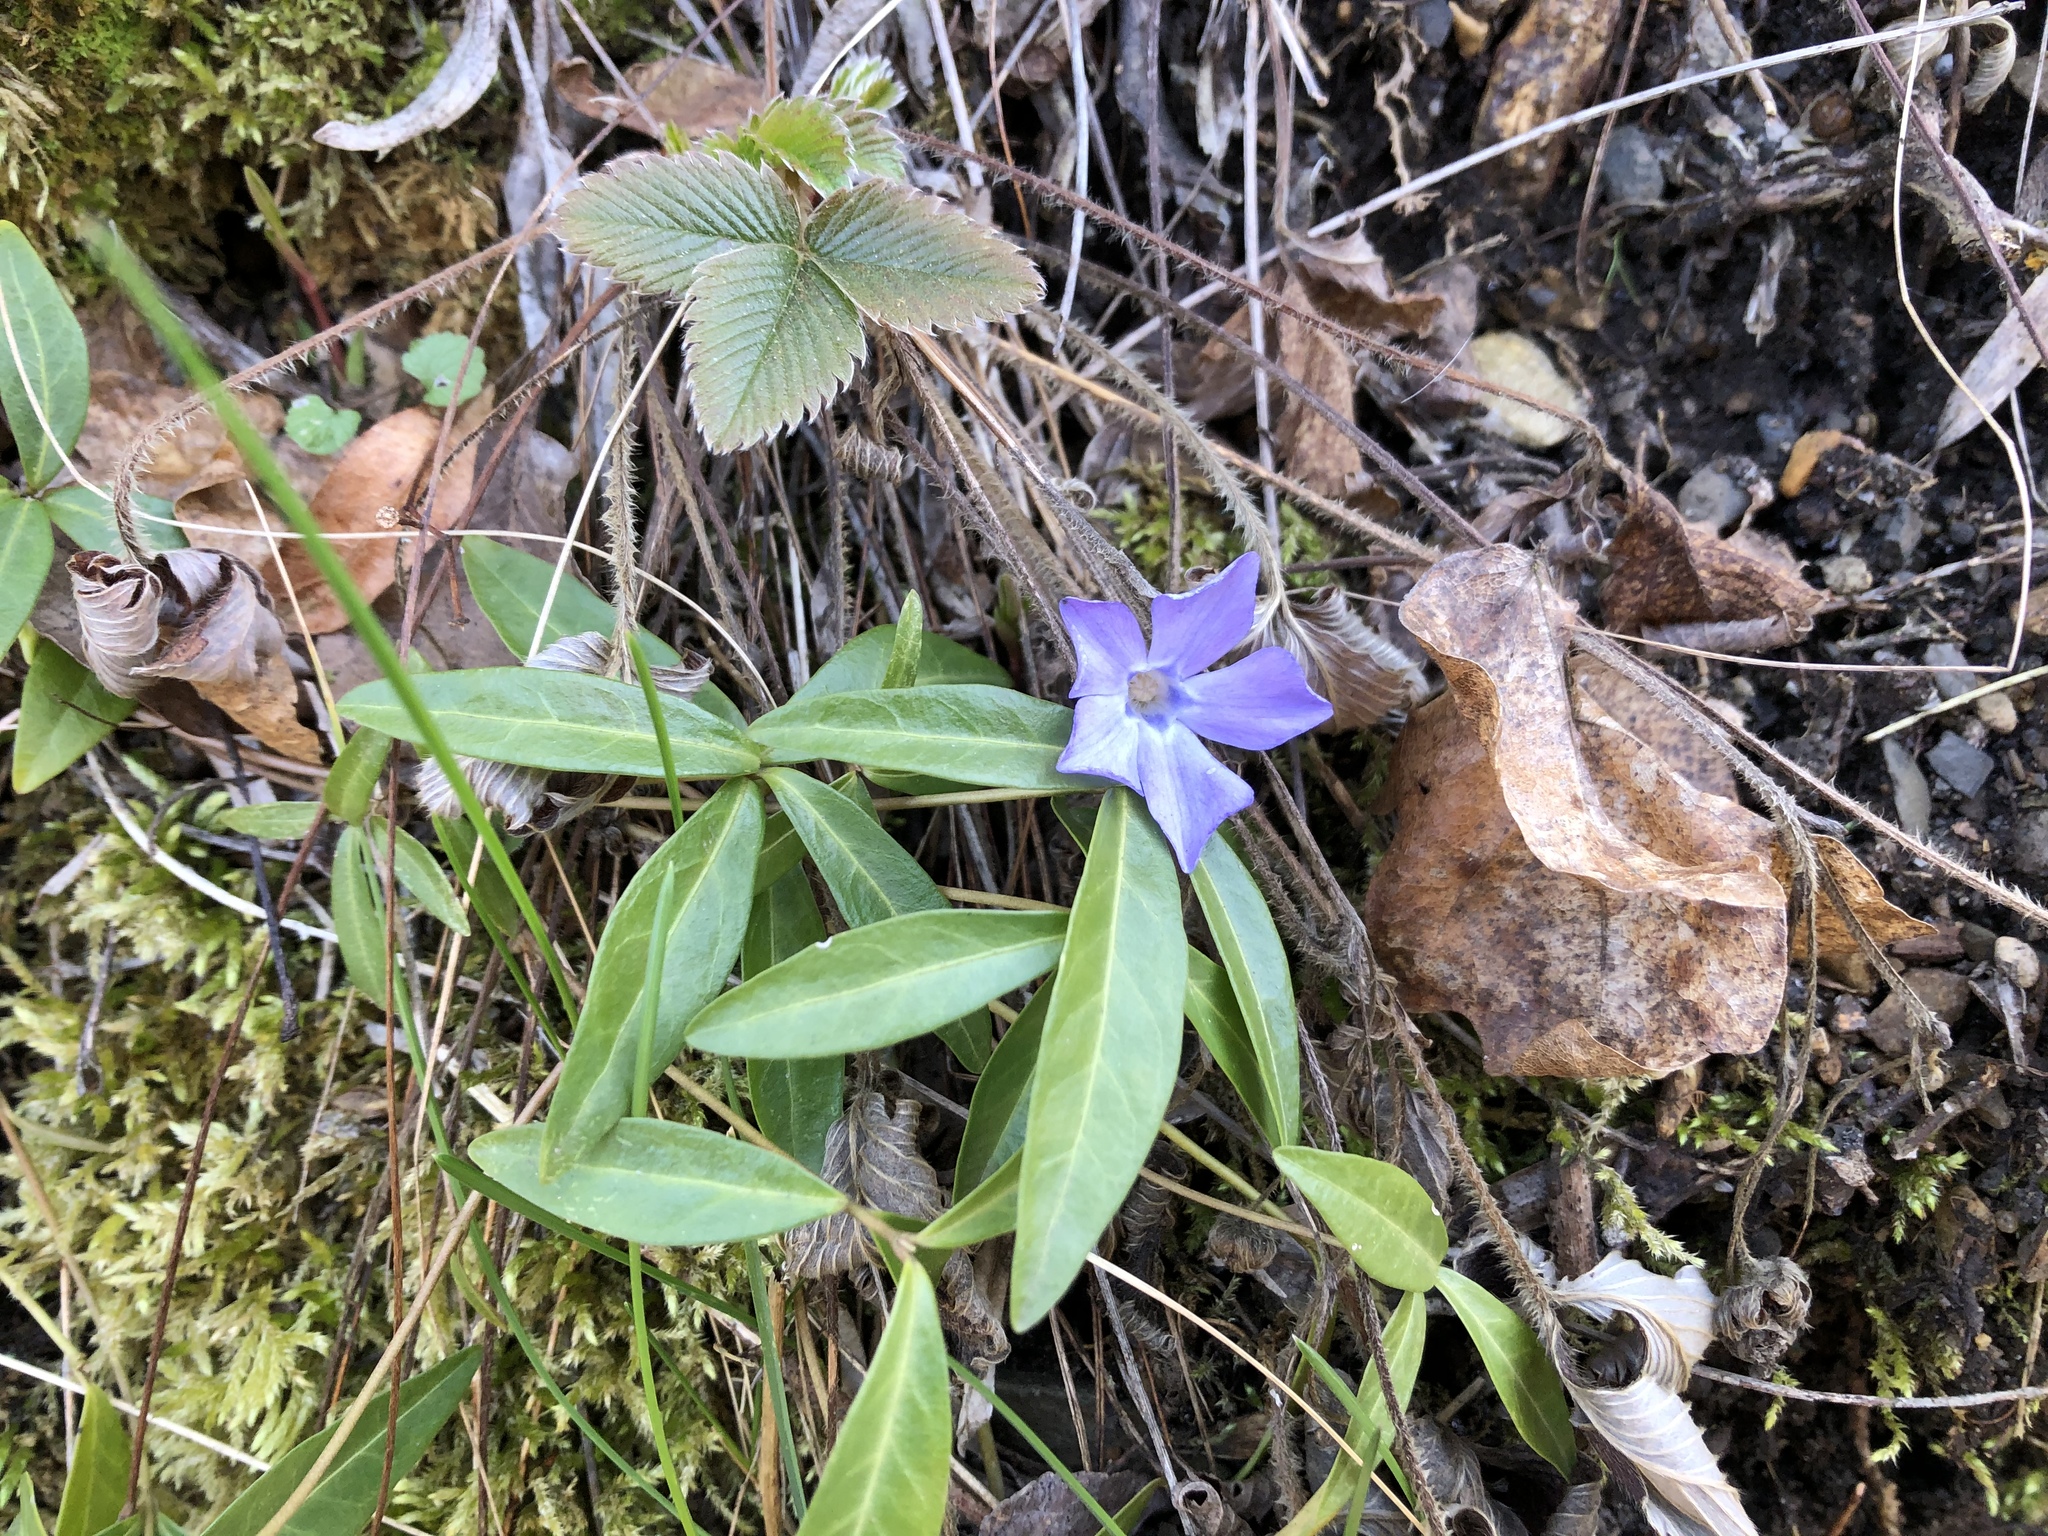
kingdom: Plantae
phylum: Tracheophyta
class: Magnoliopsida
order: Gentianales
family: Apocynaceae
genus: Vinca
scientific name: Vinca minor
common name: Lesser periwinkle
